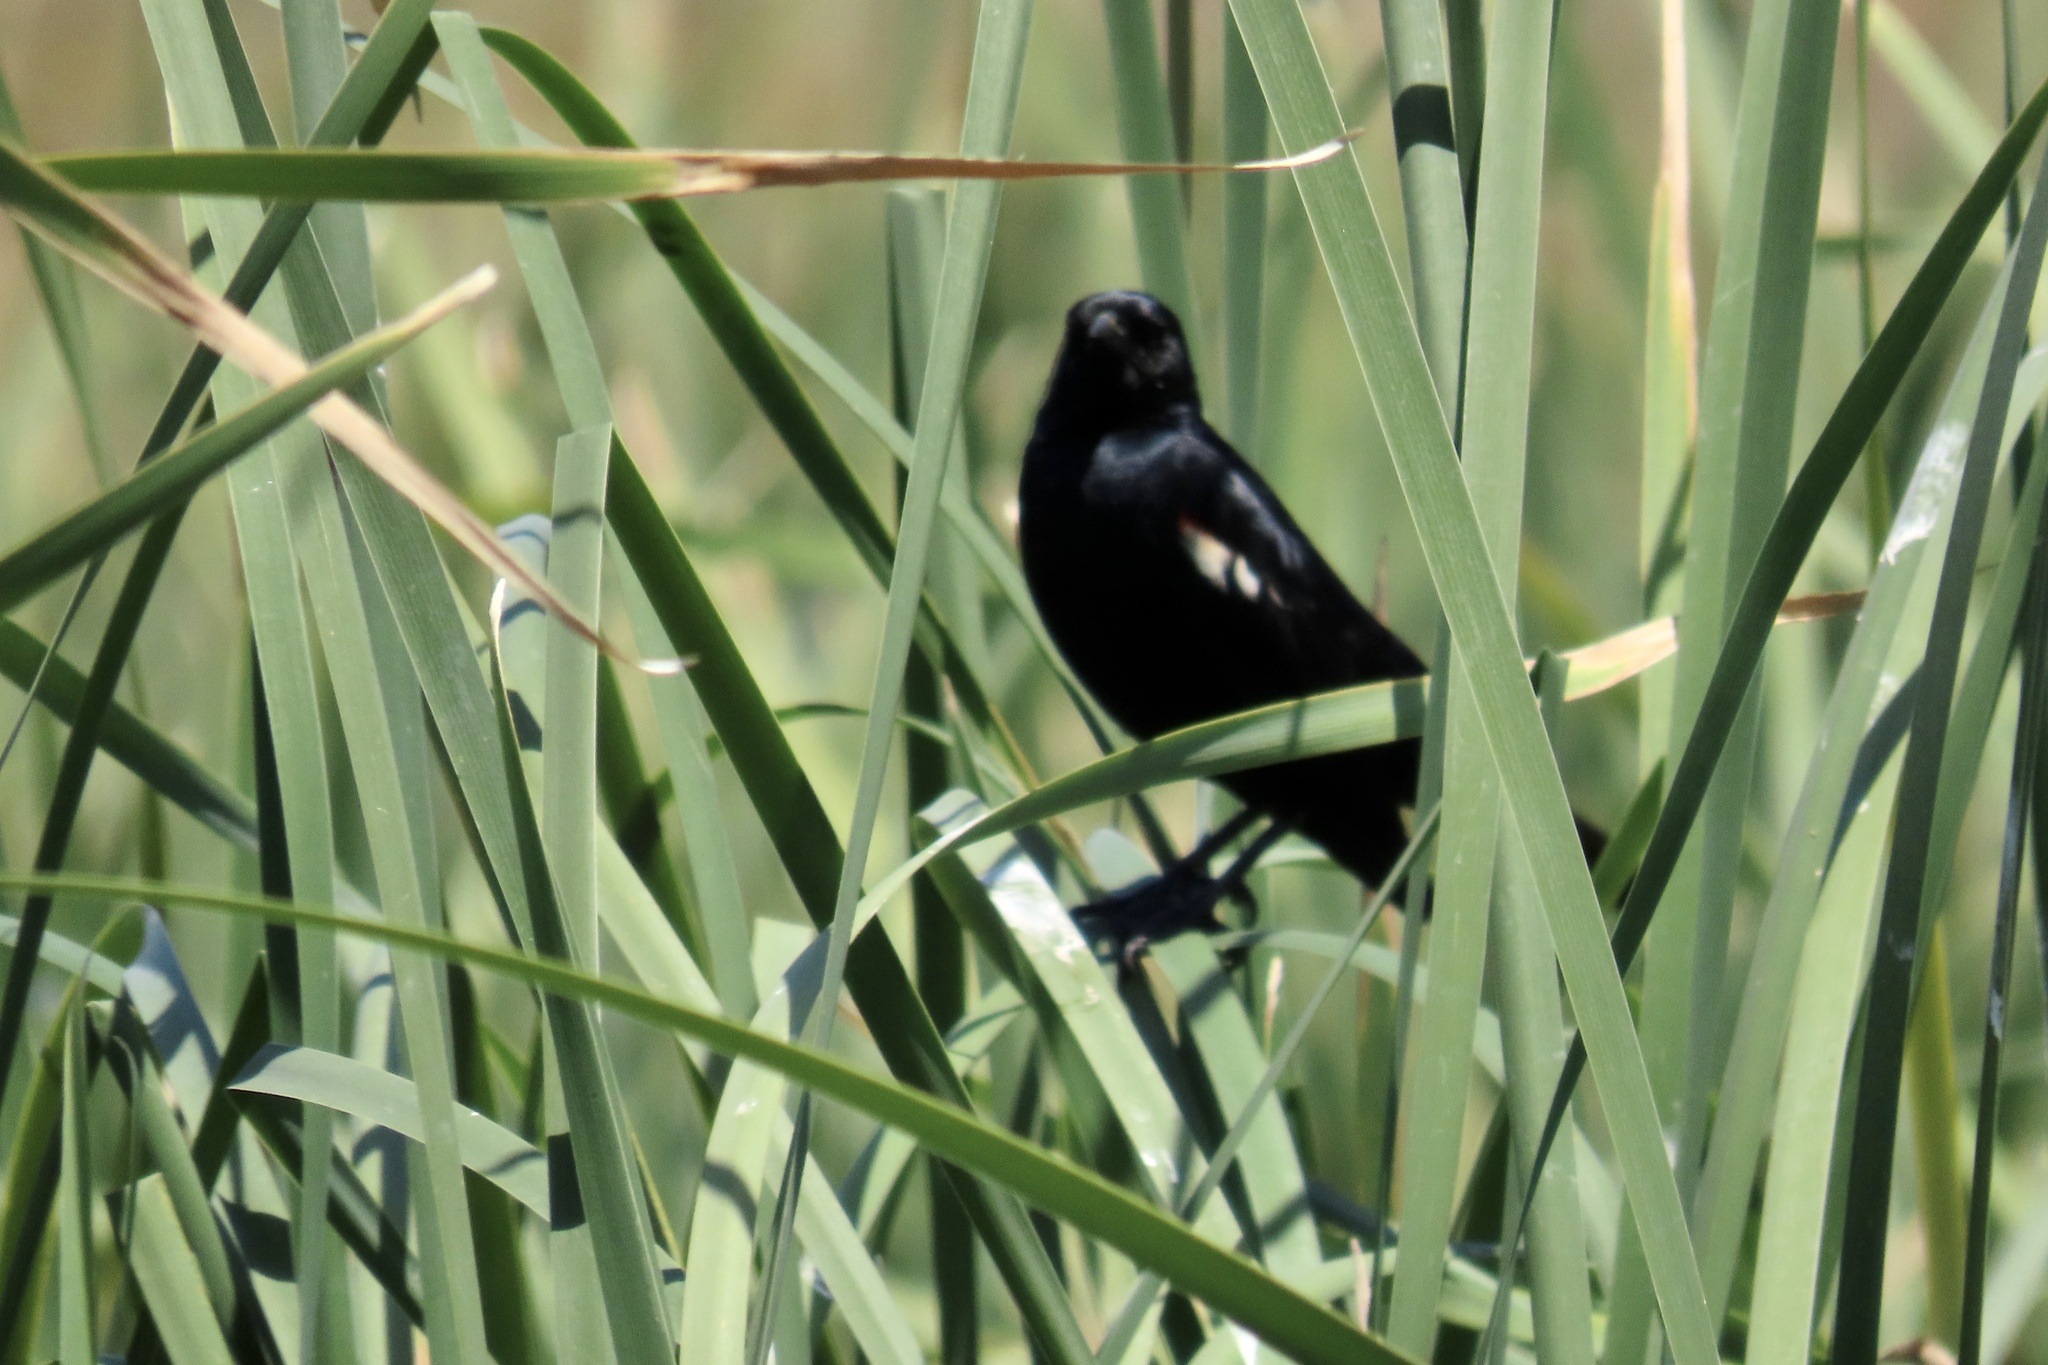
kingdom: Animalia
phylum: Chordata
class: Aves
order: Passeriformes
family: Icteridae
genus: Agelaius
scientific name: Agelaius tricolor
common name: Tricolored blackbird
